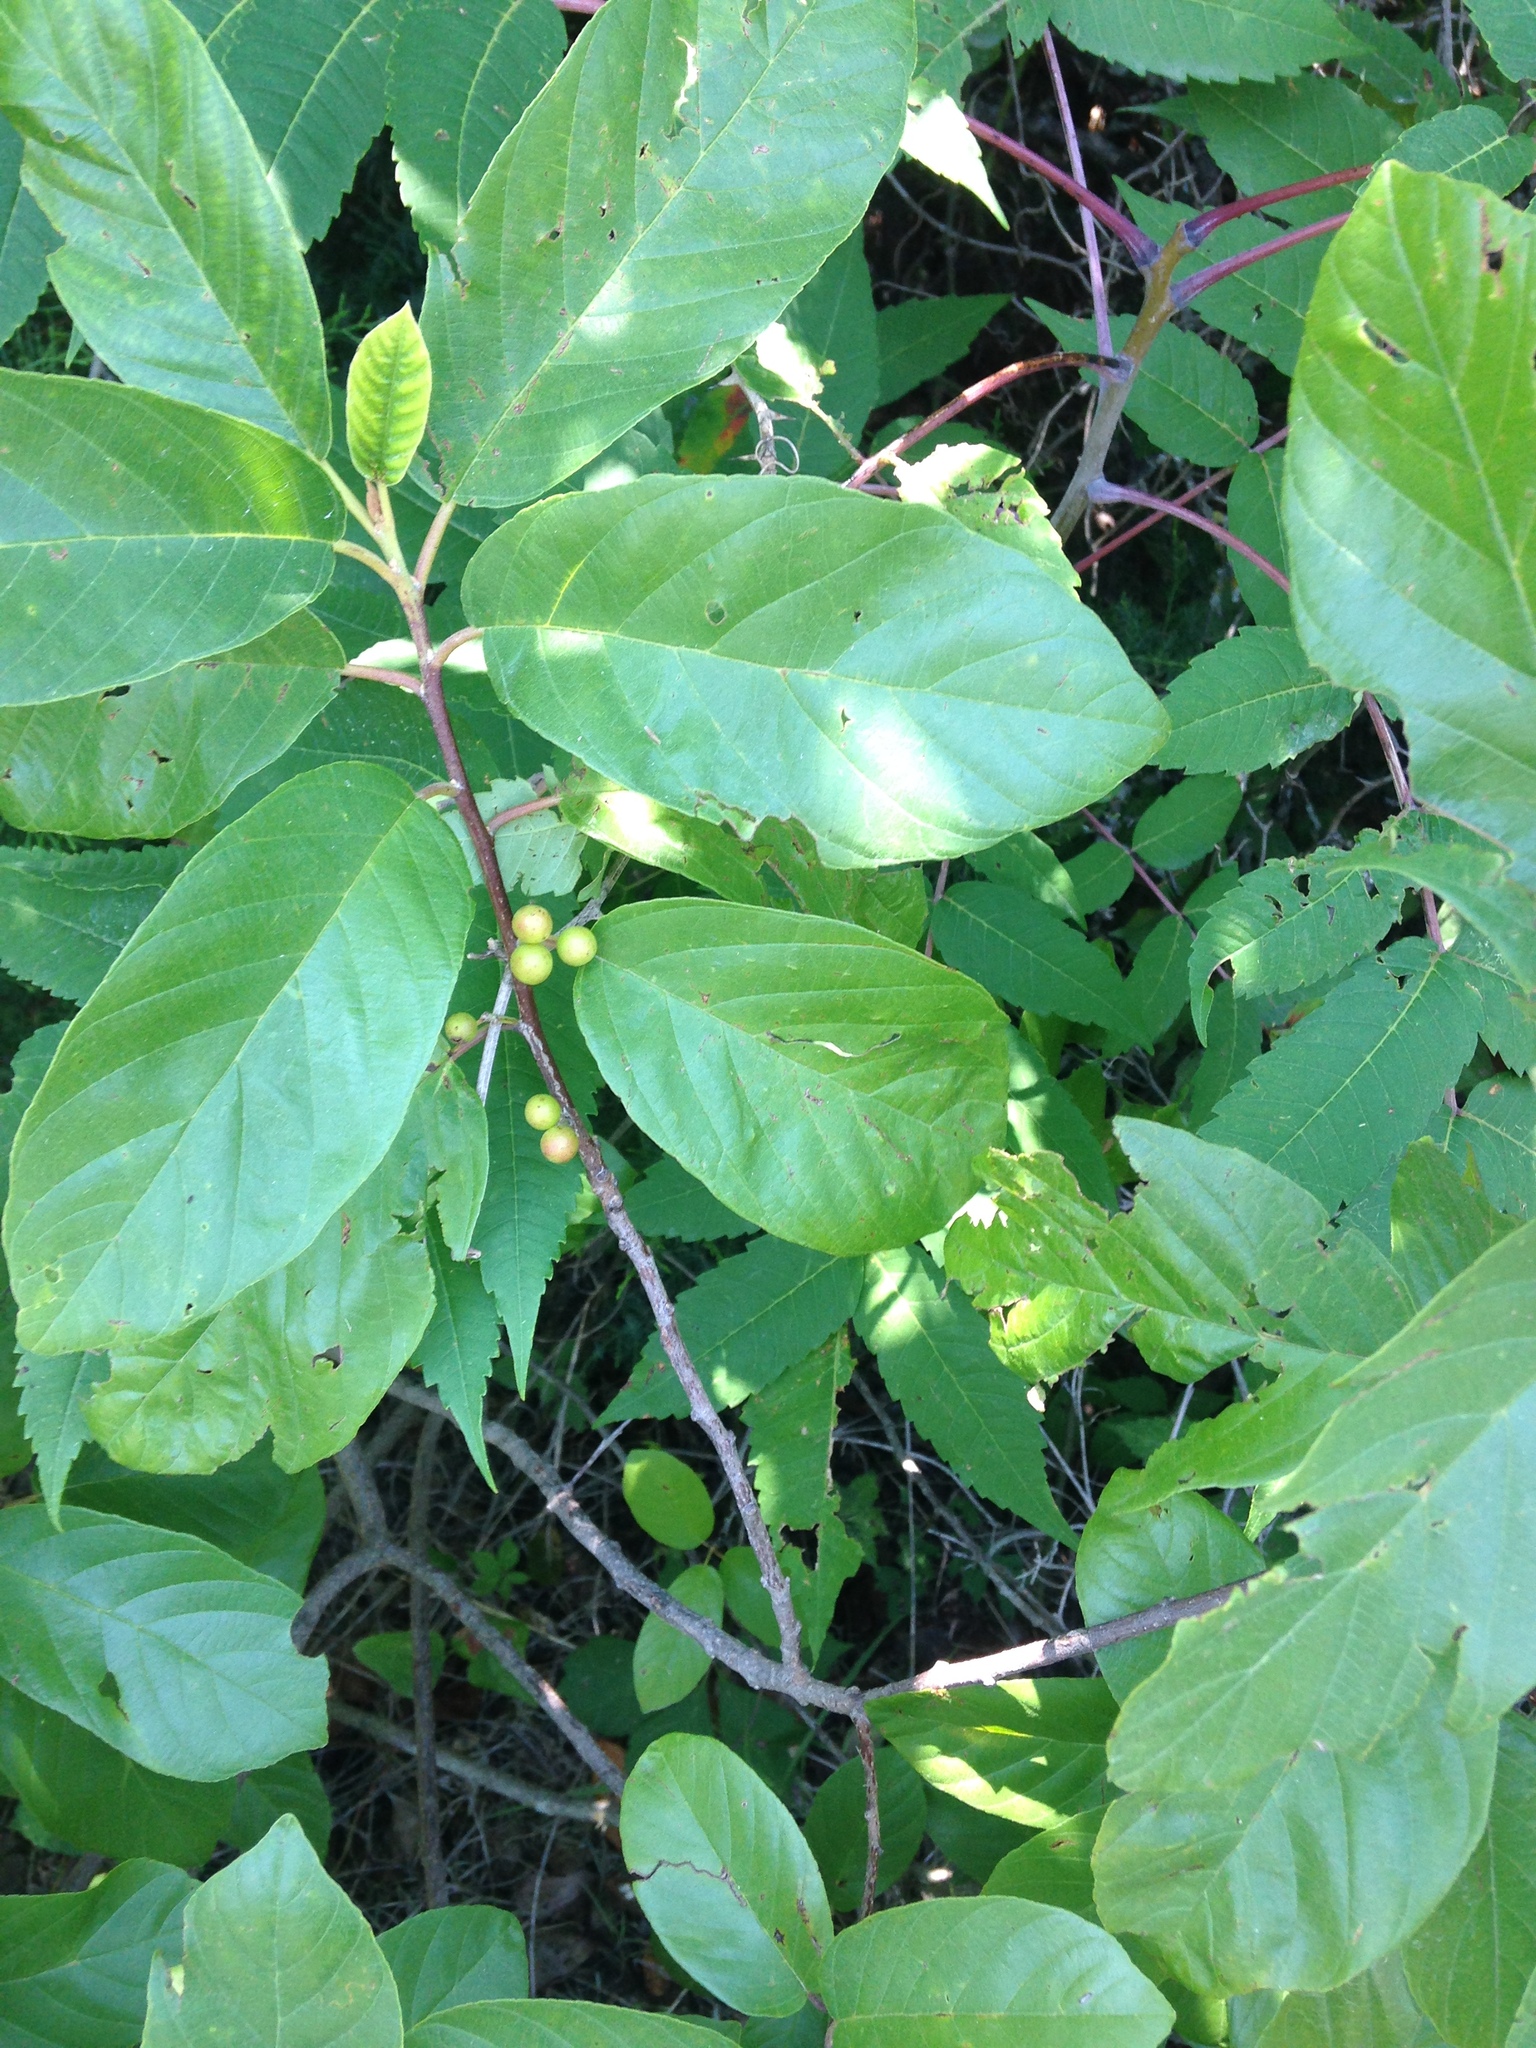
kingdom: Plantae
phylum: Tracheophyta
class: Magnoliopsida
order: Rosales
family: Rhamnaceae
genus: Frangula
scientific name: Frangula caroliniana
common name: Carolina buckthorn
